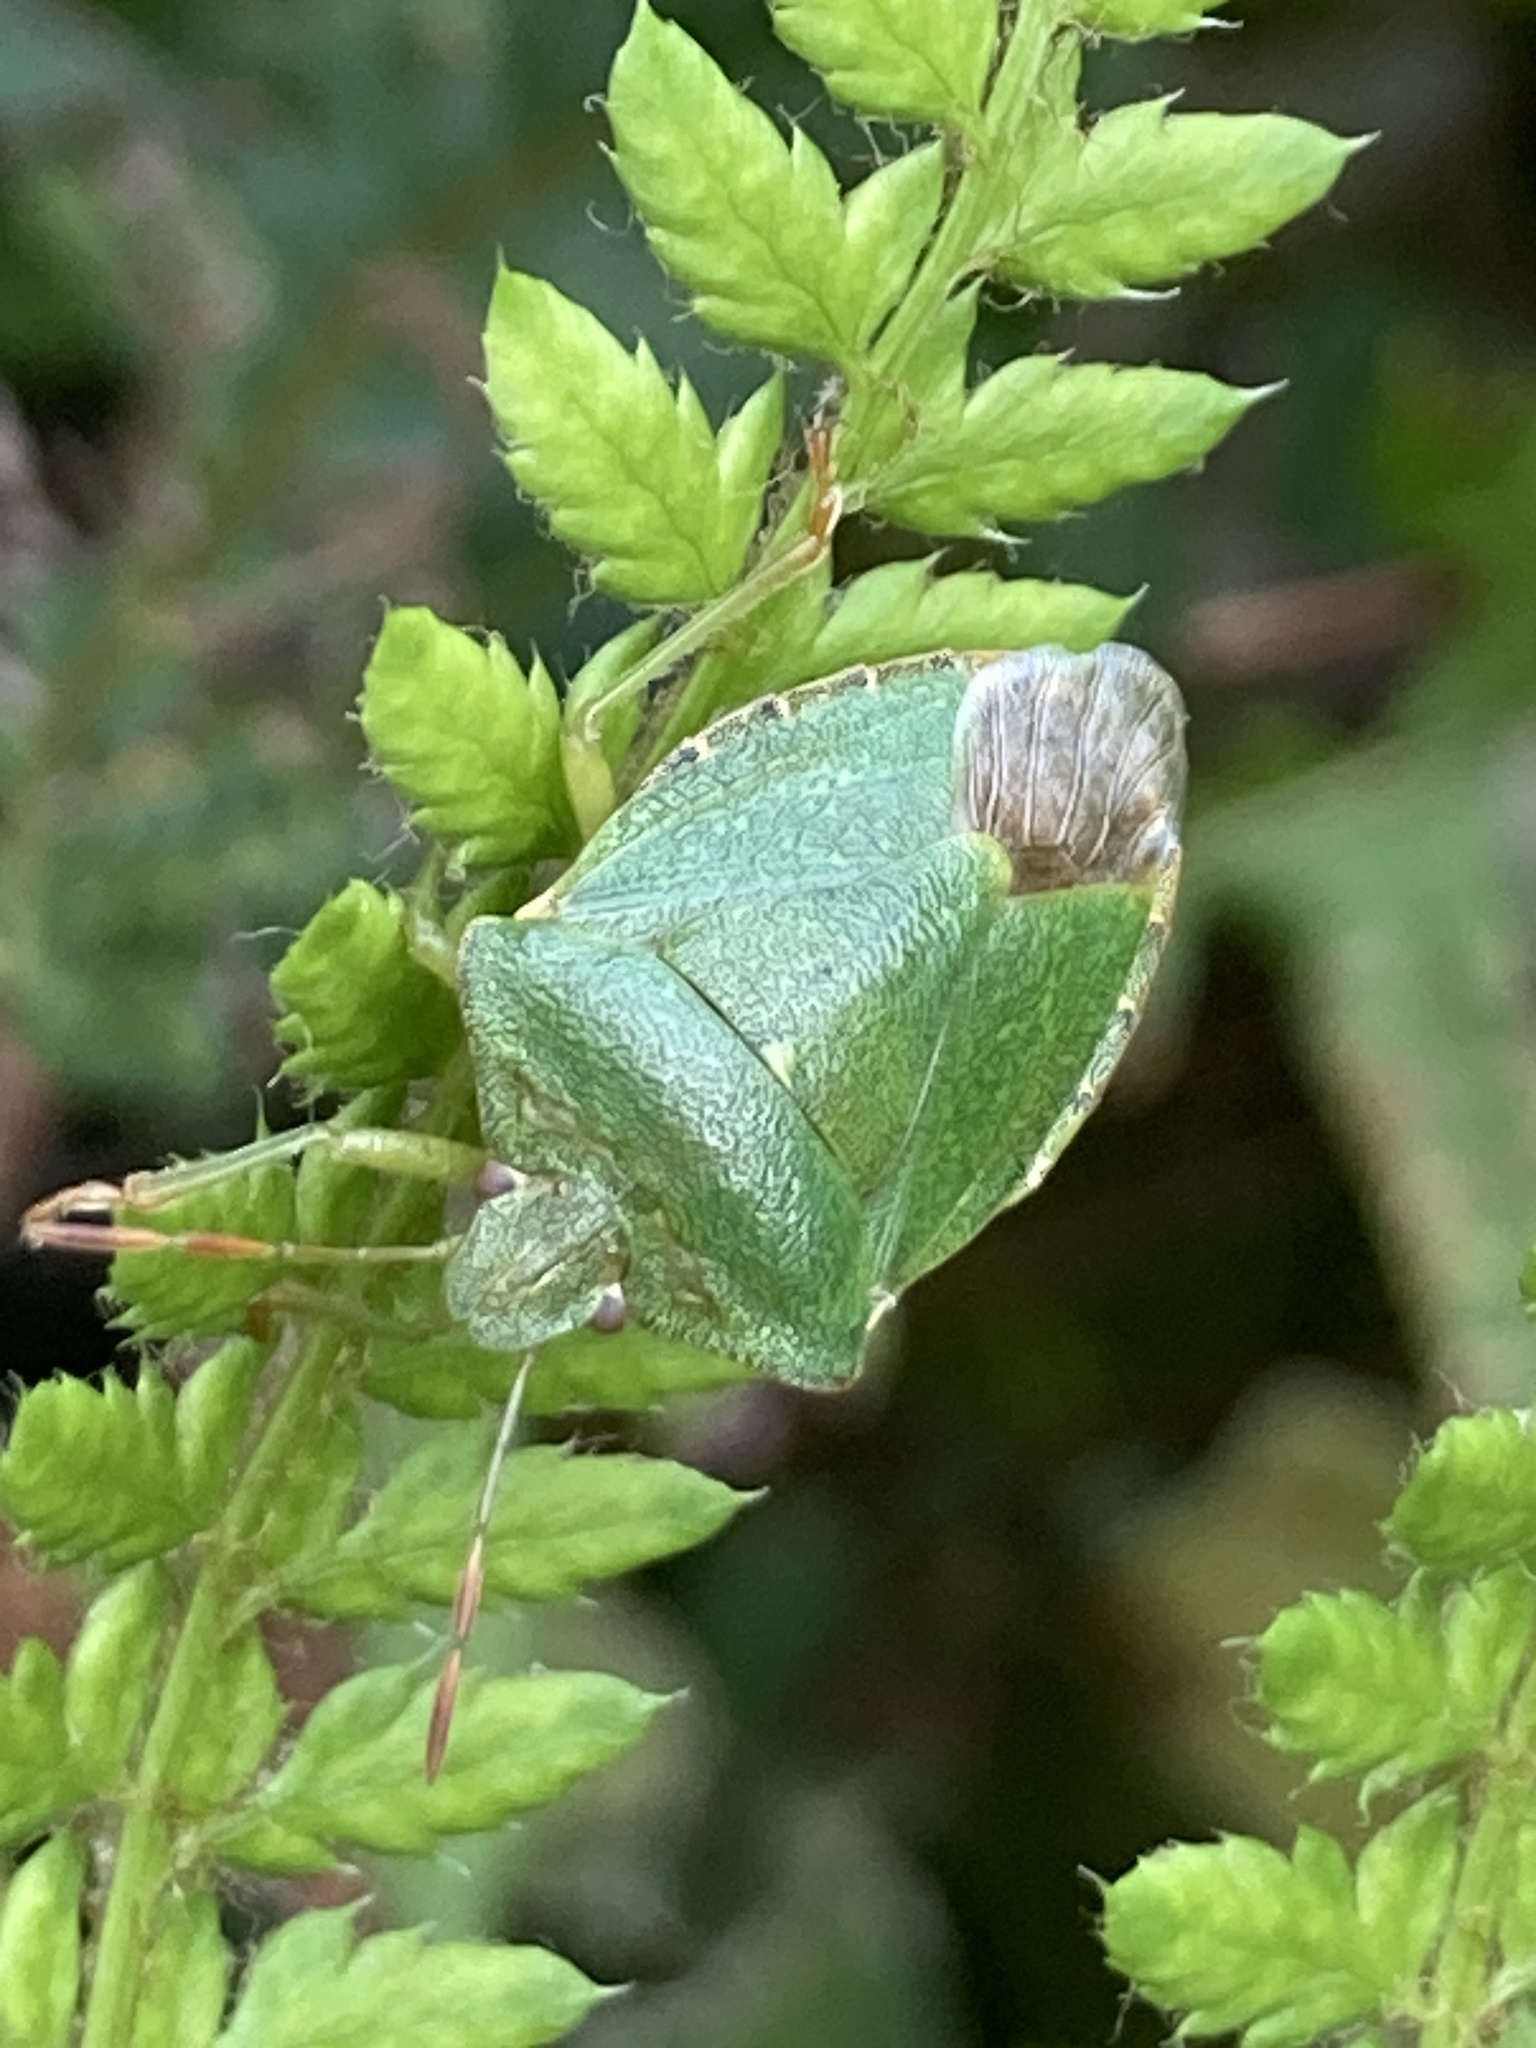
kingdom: Animalia
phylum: Arthropoda
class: Insecta
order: Hemiptera
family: Pentatomidae
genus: Palomena
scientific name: Palomena prasina
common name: Green shieldbug
